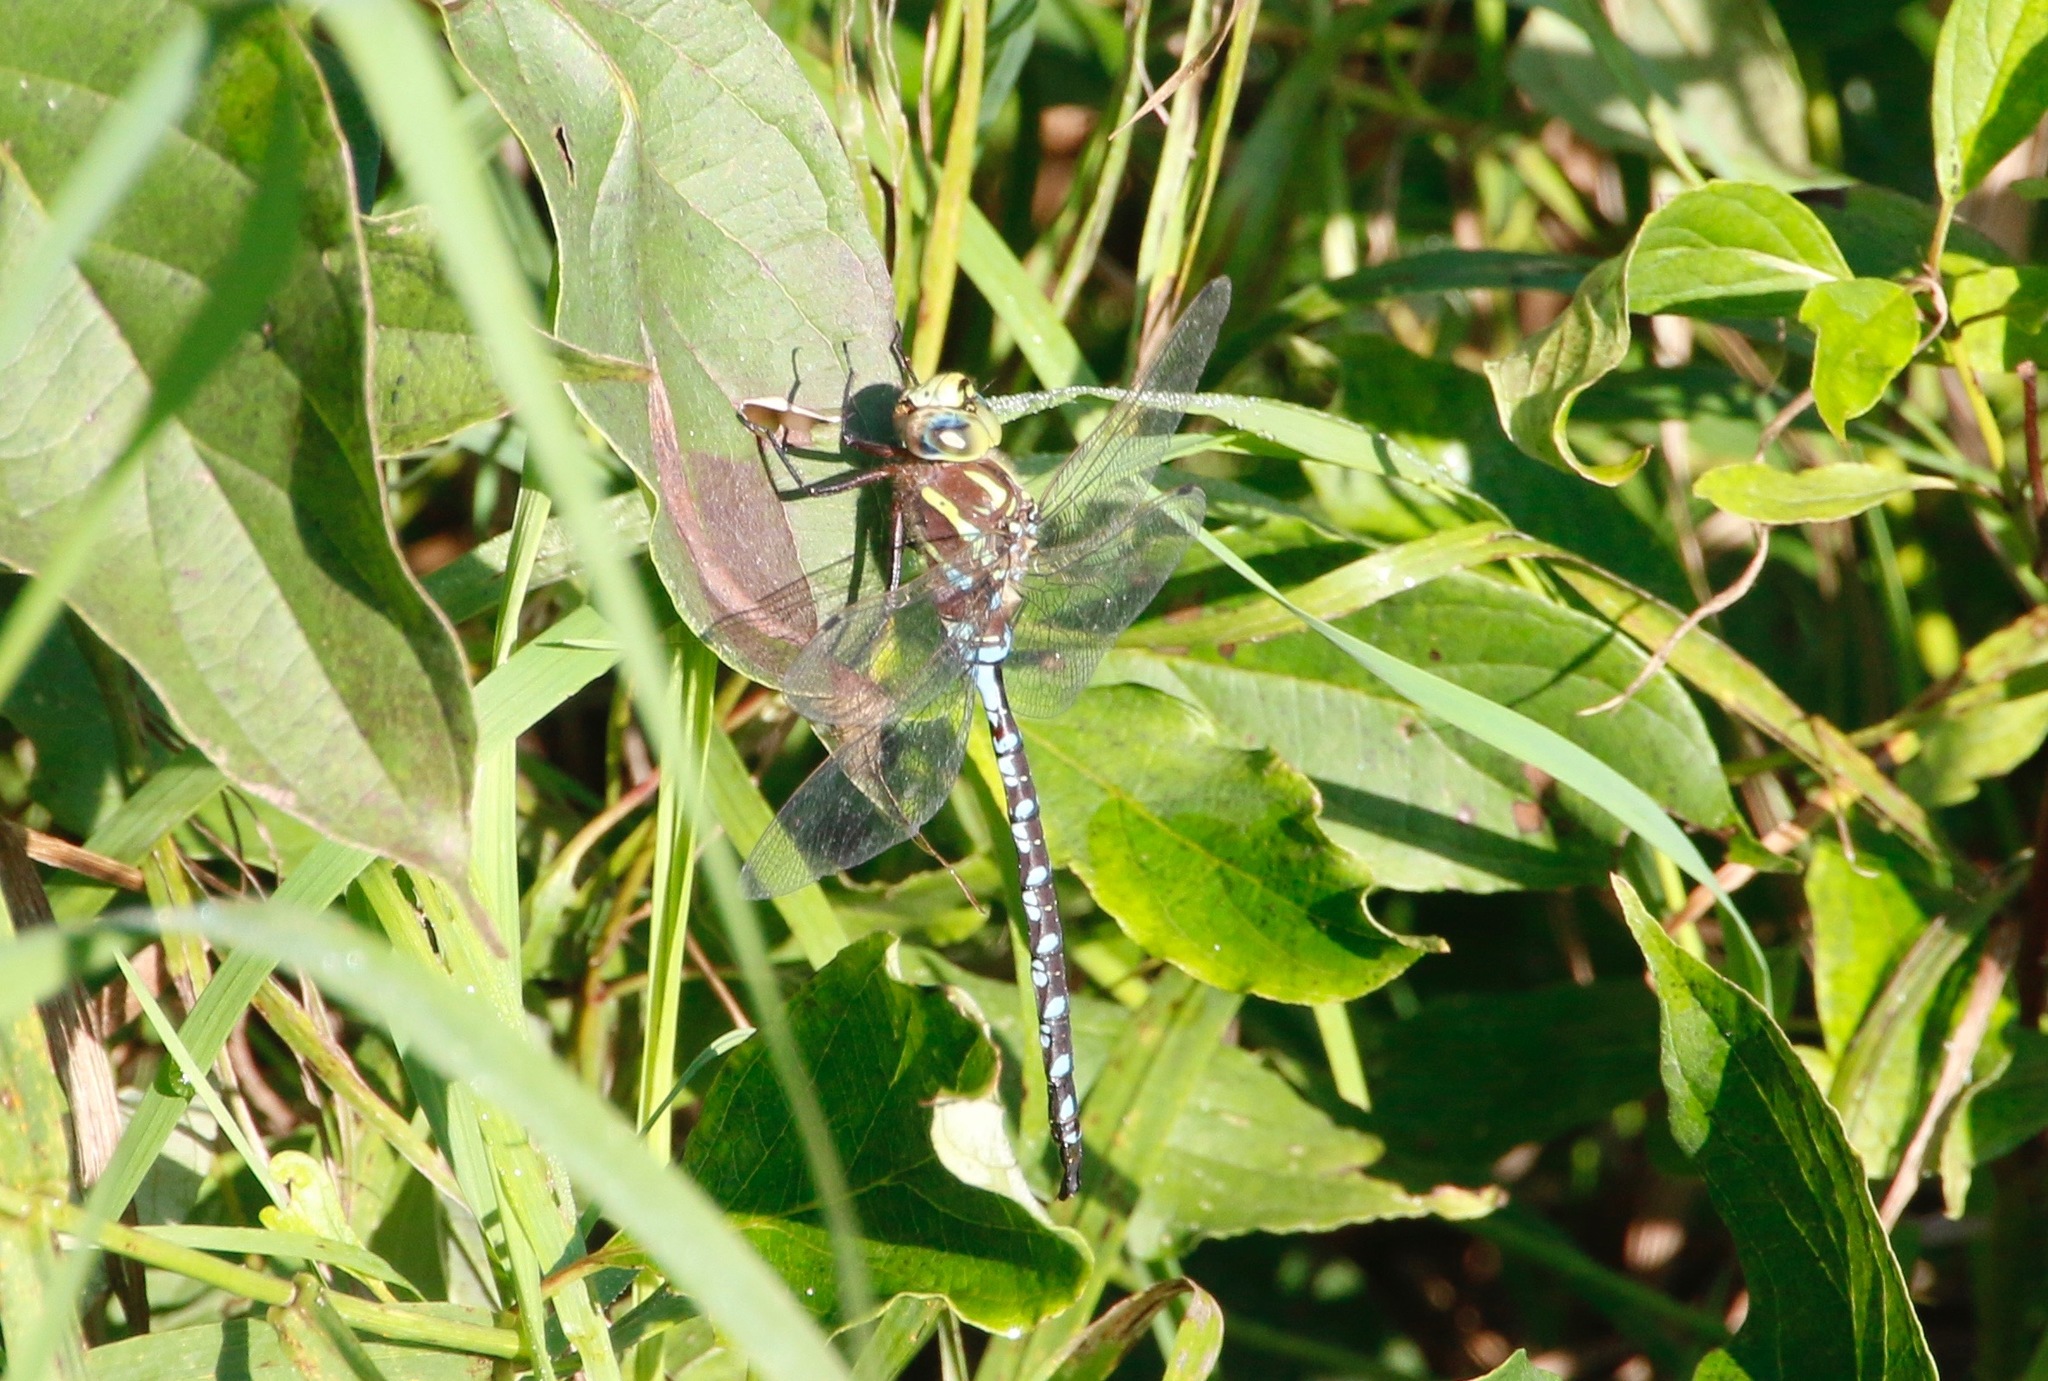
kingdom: Animalia
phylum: Arthropoda
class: Insecta
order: Odonata
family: Aeshnidae
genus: Aeshna
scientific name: Aeshna constricta
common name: Lance-tipped darner
